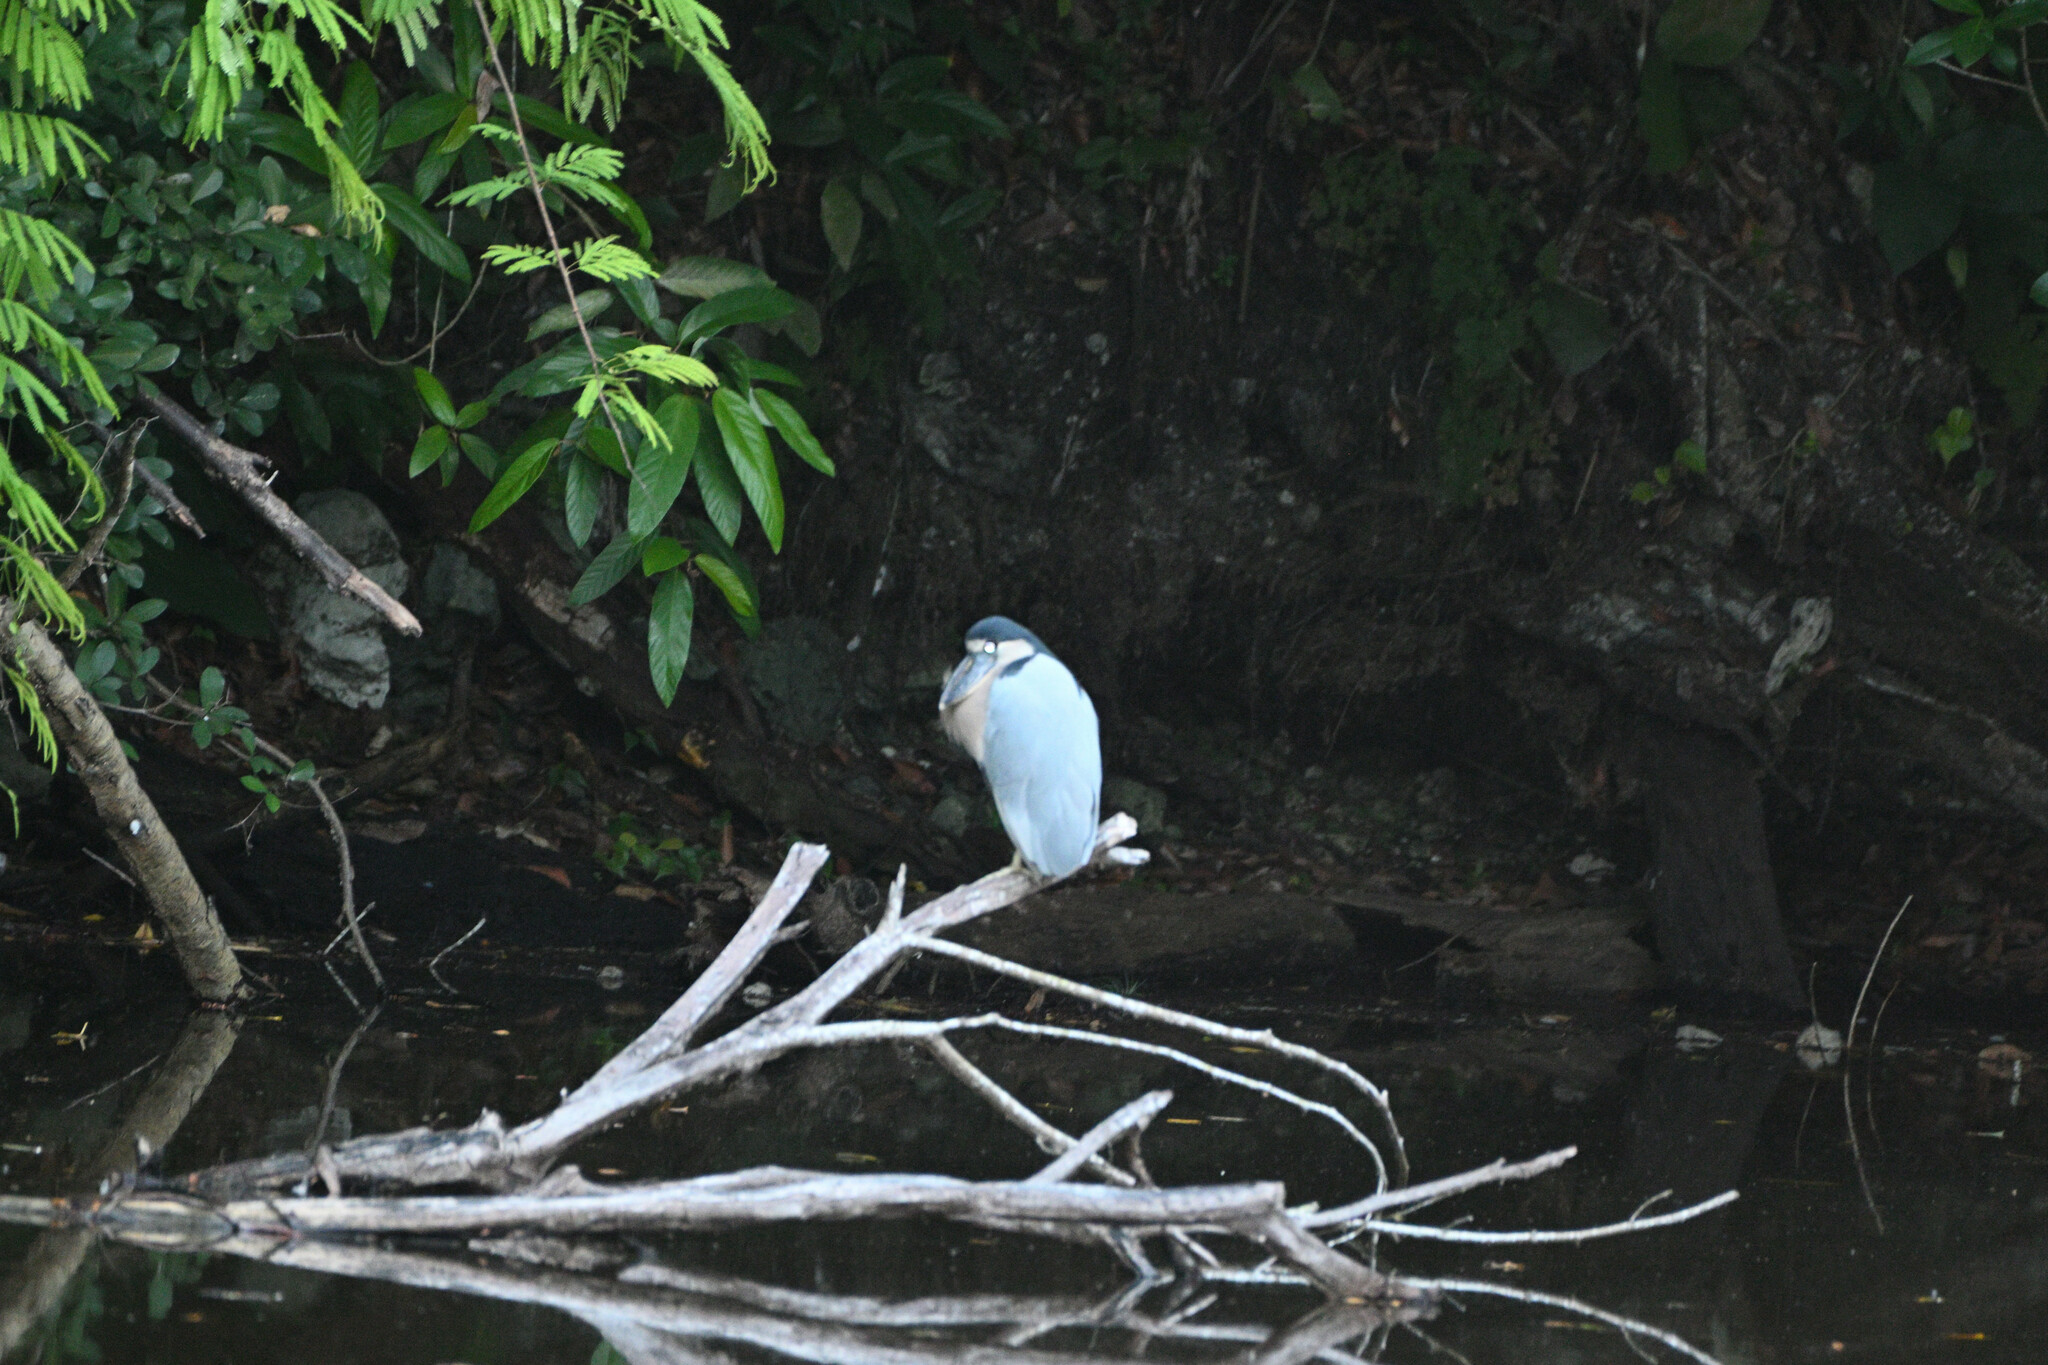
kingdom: Animalia
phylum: Chordata
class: Aves
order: Pelecaniformes
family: Ardeidae
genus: Cochlearius
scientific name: Cochlearius cochlearius
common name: Boat-billed heron
